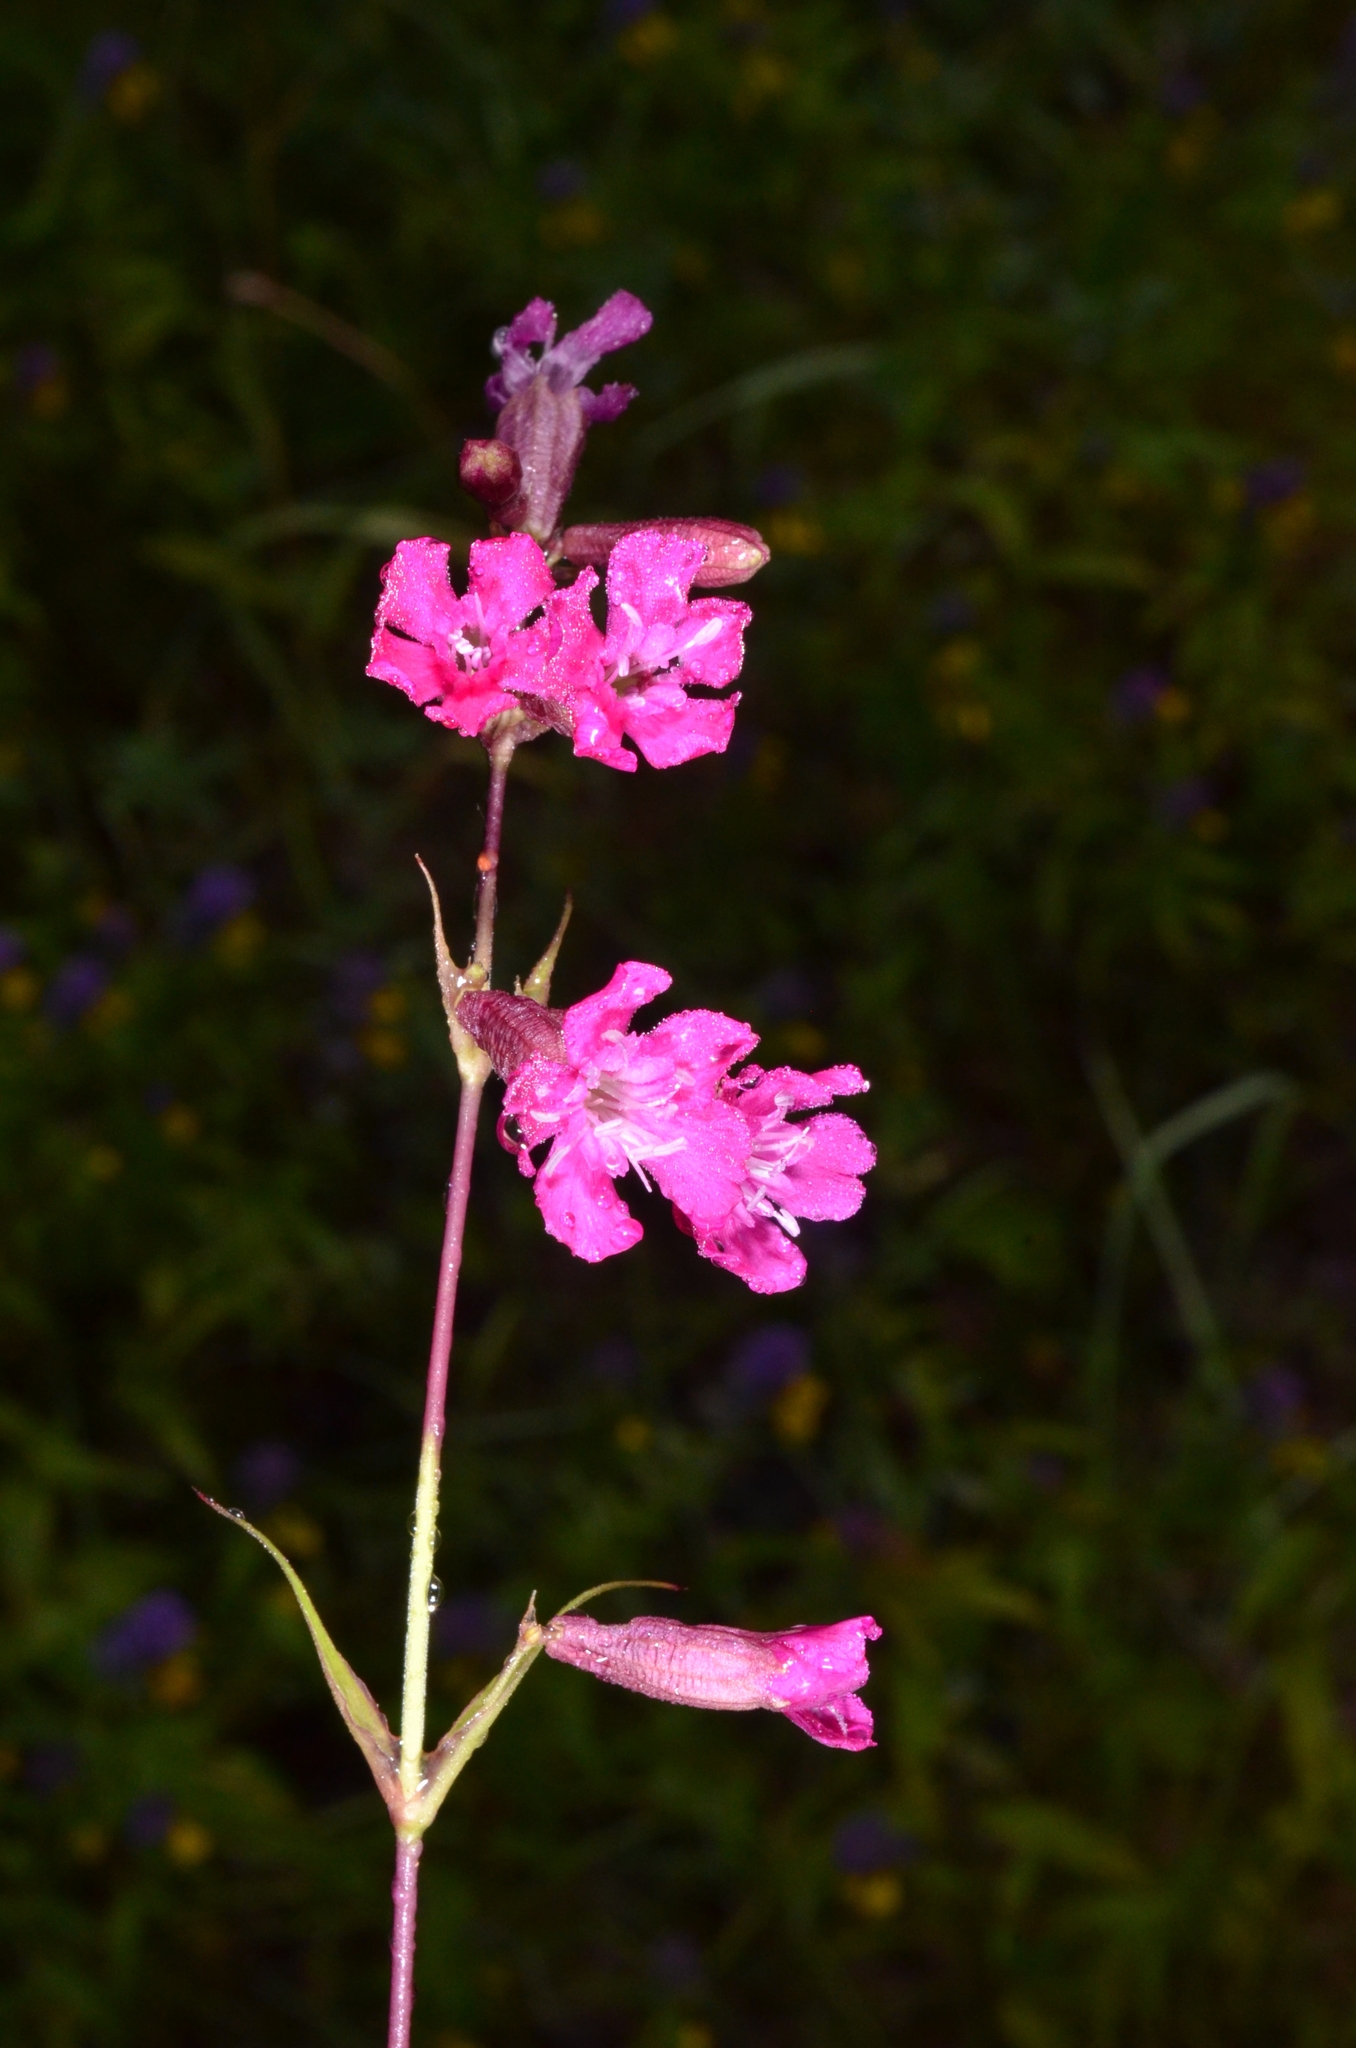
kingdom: Plantae
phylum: Tracheophyta
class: Magnoliopsida
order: Caryophyllales
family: Caryophyllaceae
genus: Viscaria
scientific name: Viscaria vulgaris
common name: Clammy campion
